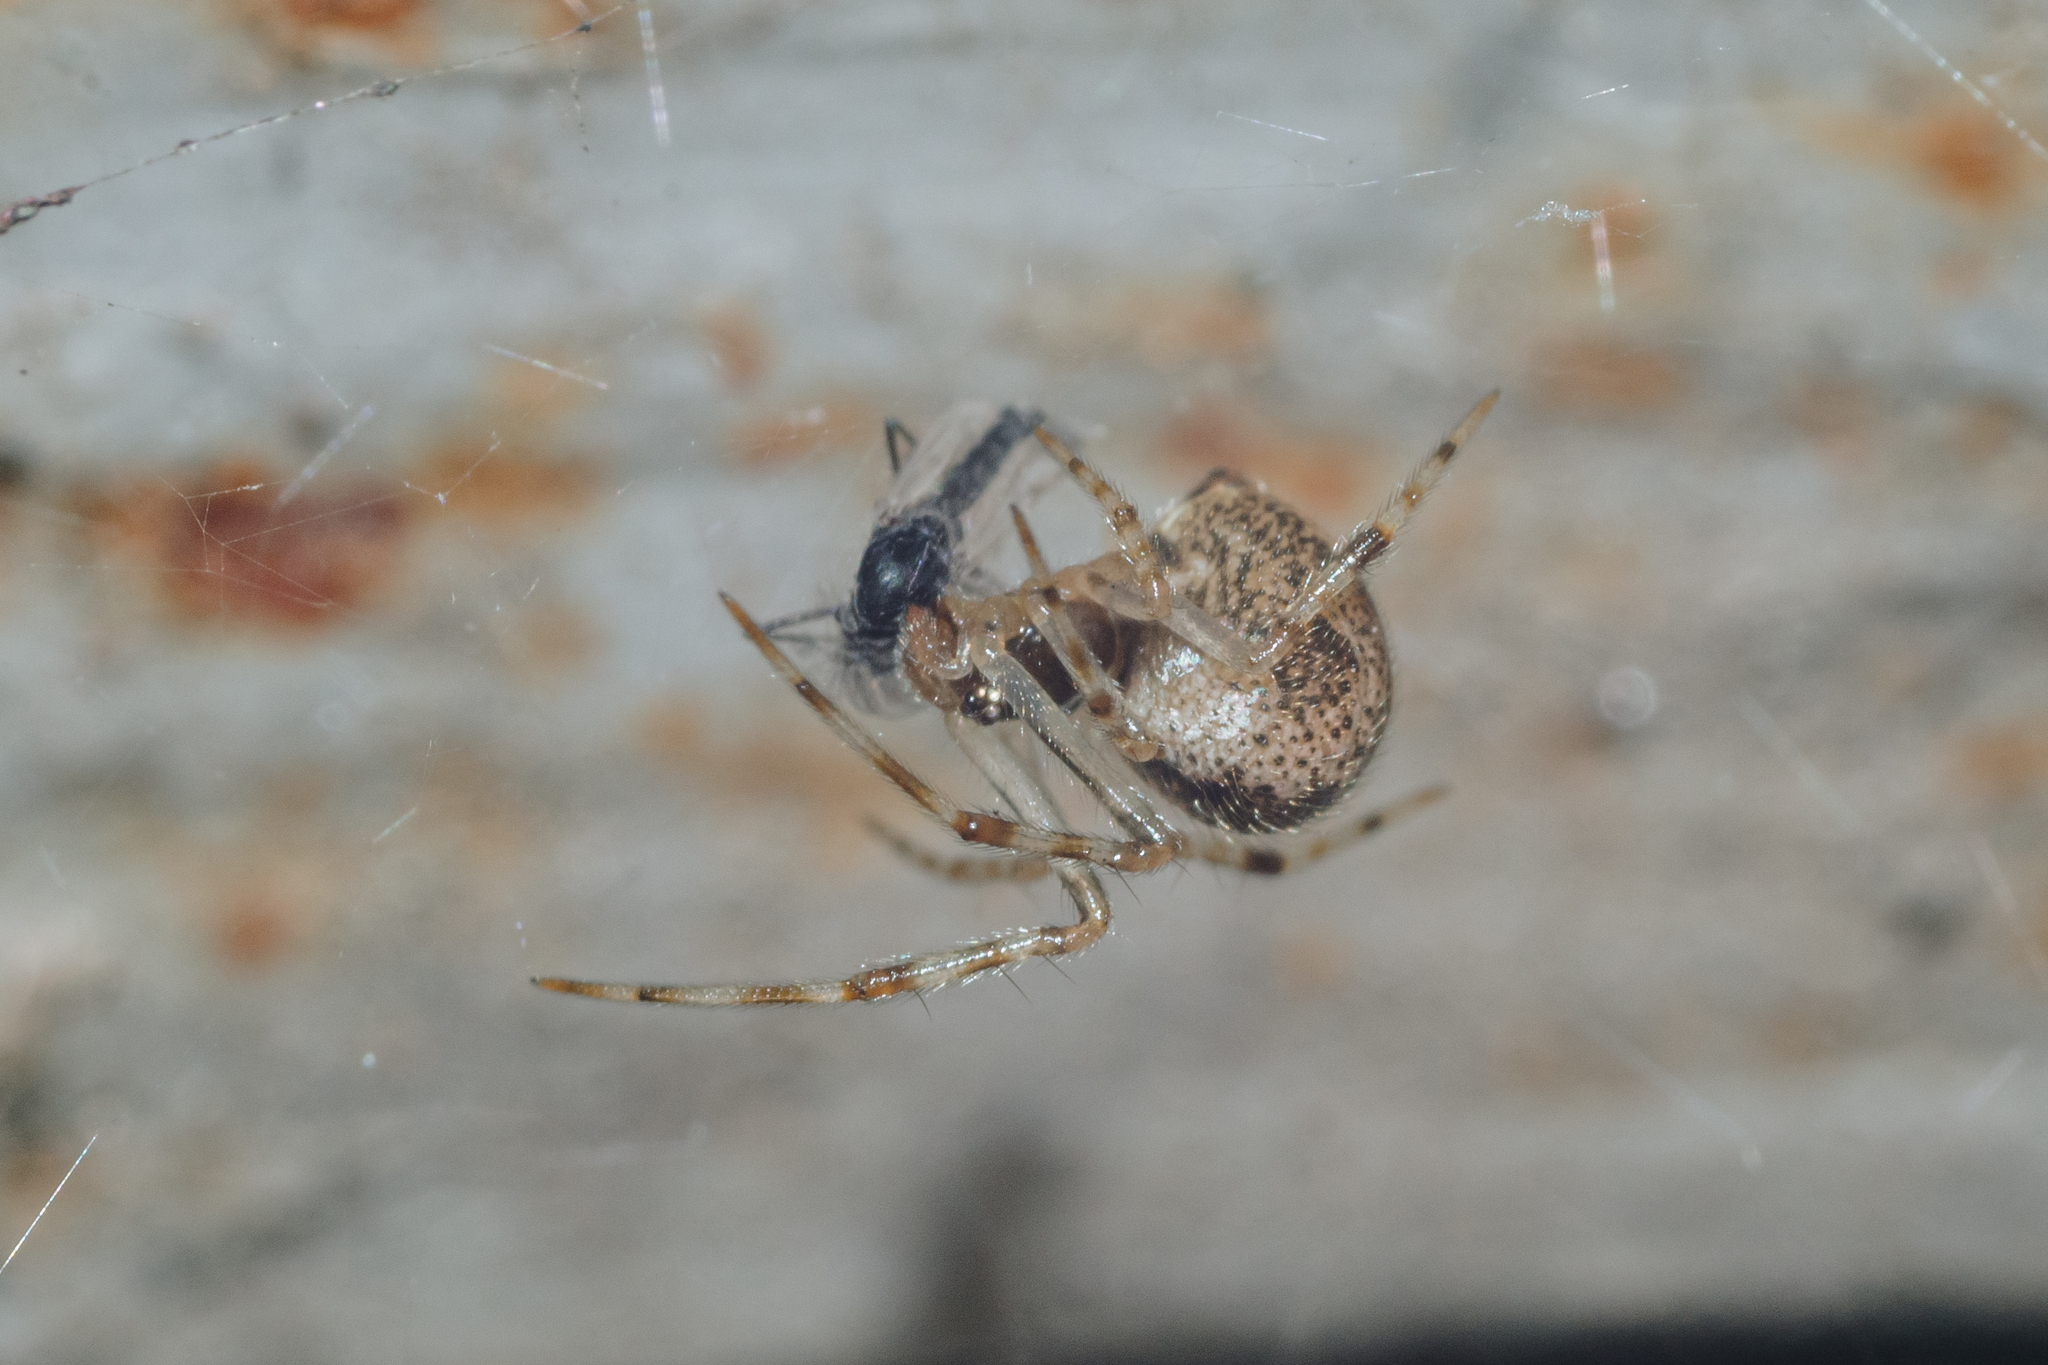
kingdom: Animalia
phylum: Arthropoda
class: Arachnida
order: Araneae
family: Theridiidae
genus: Parasteatoda
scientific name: Parasteatoda tepidariorum
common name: Common house spider
